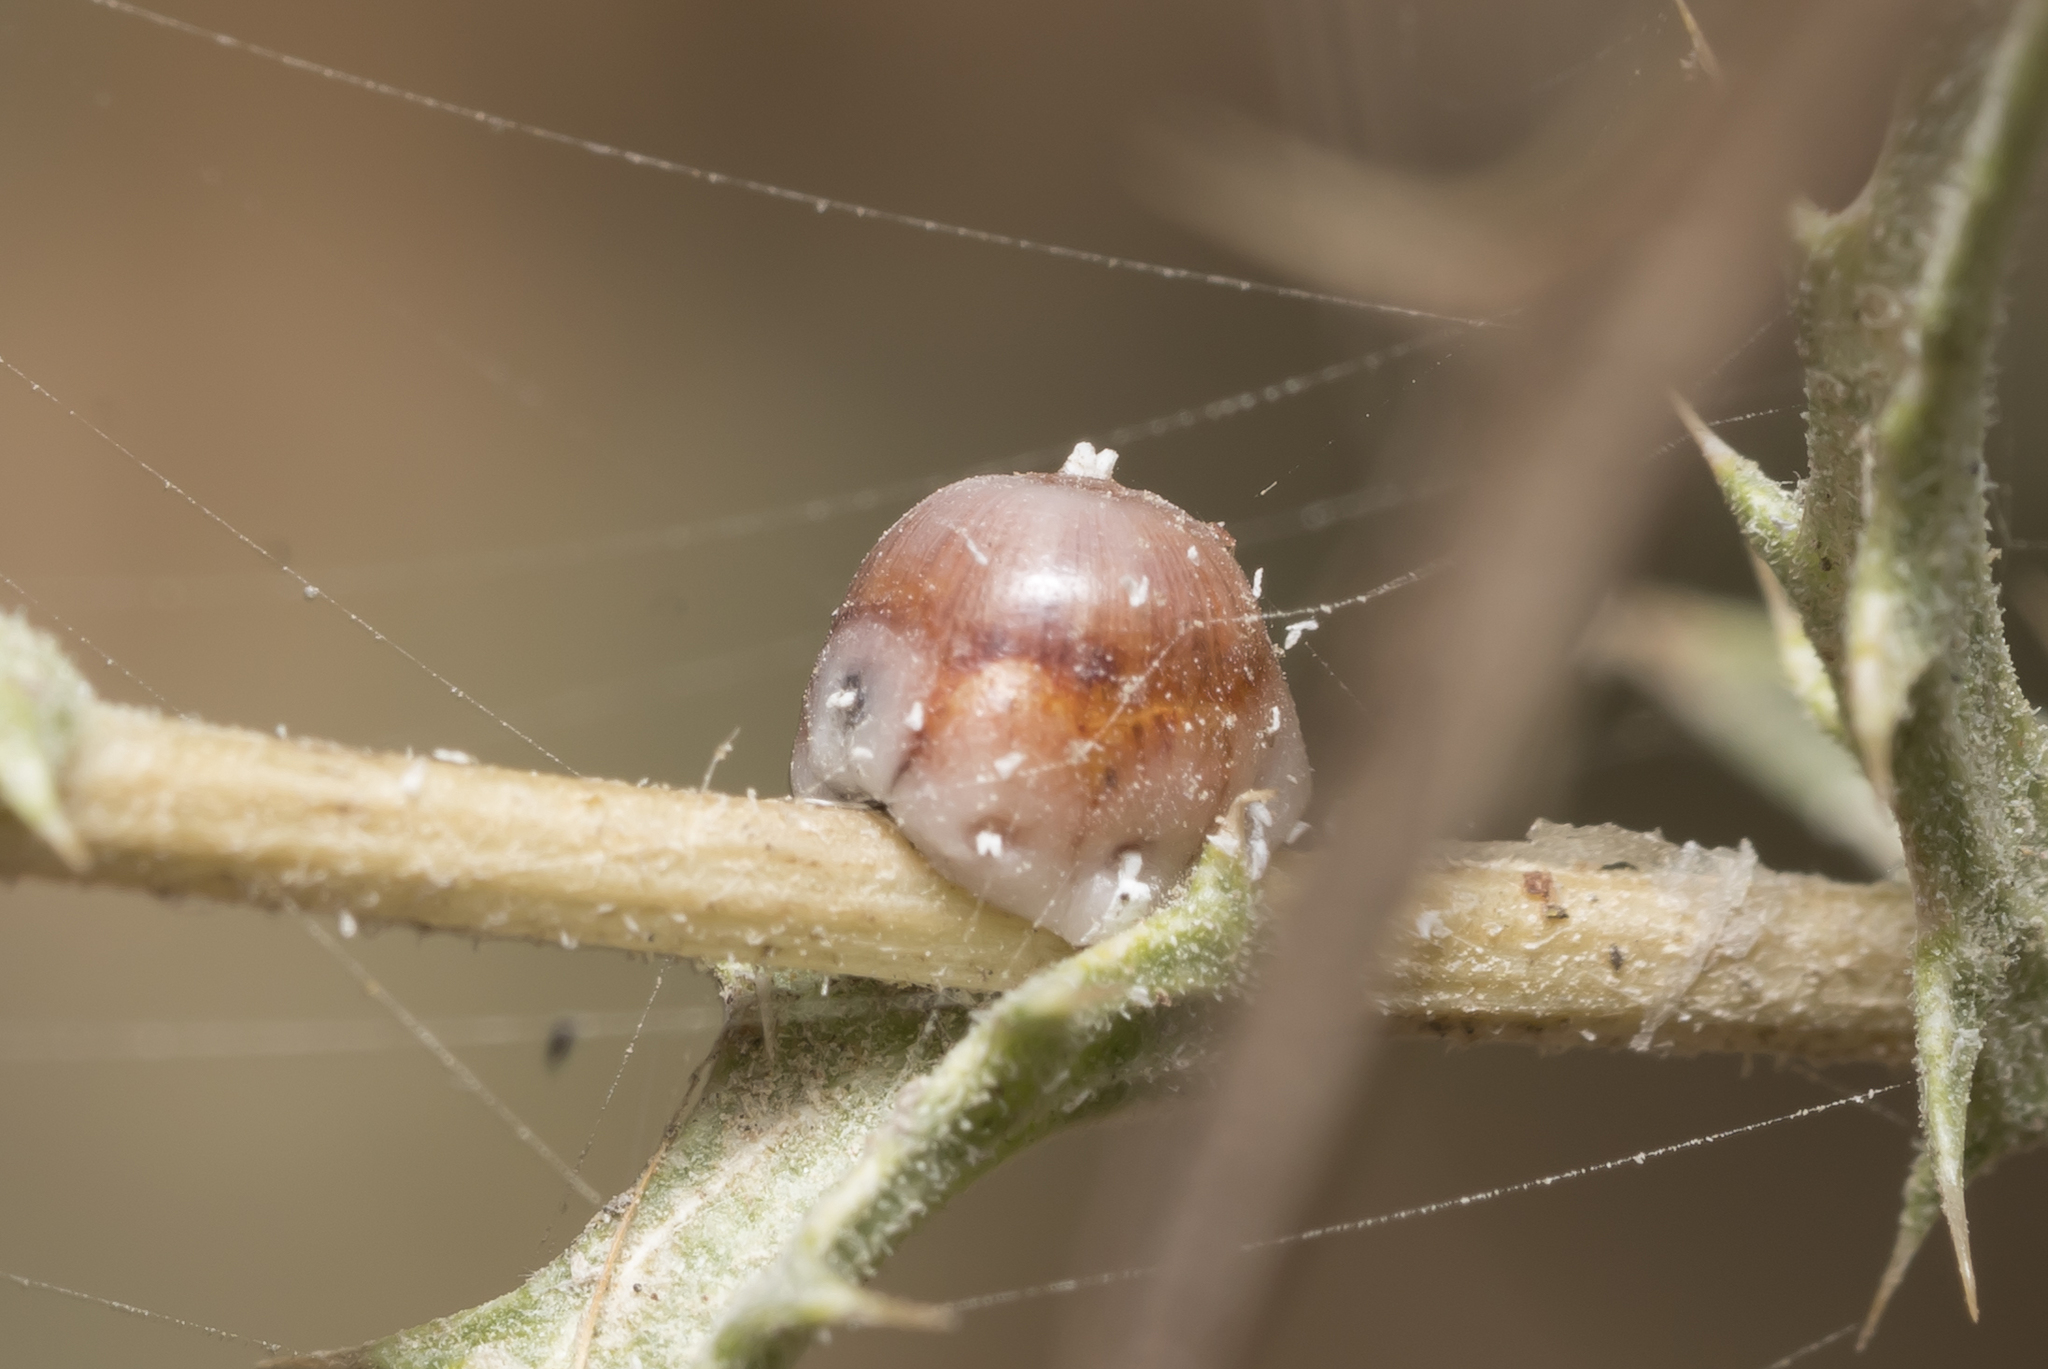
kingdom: Animalia
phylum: Arthropoda
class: Insecta
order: Hemiptera
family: Coccidae
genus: Ceroplastes
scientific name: Ceroplastes rusci
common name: Barnacle scale
